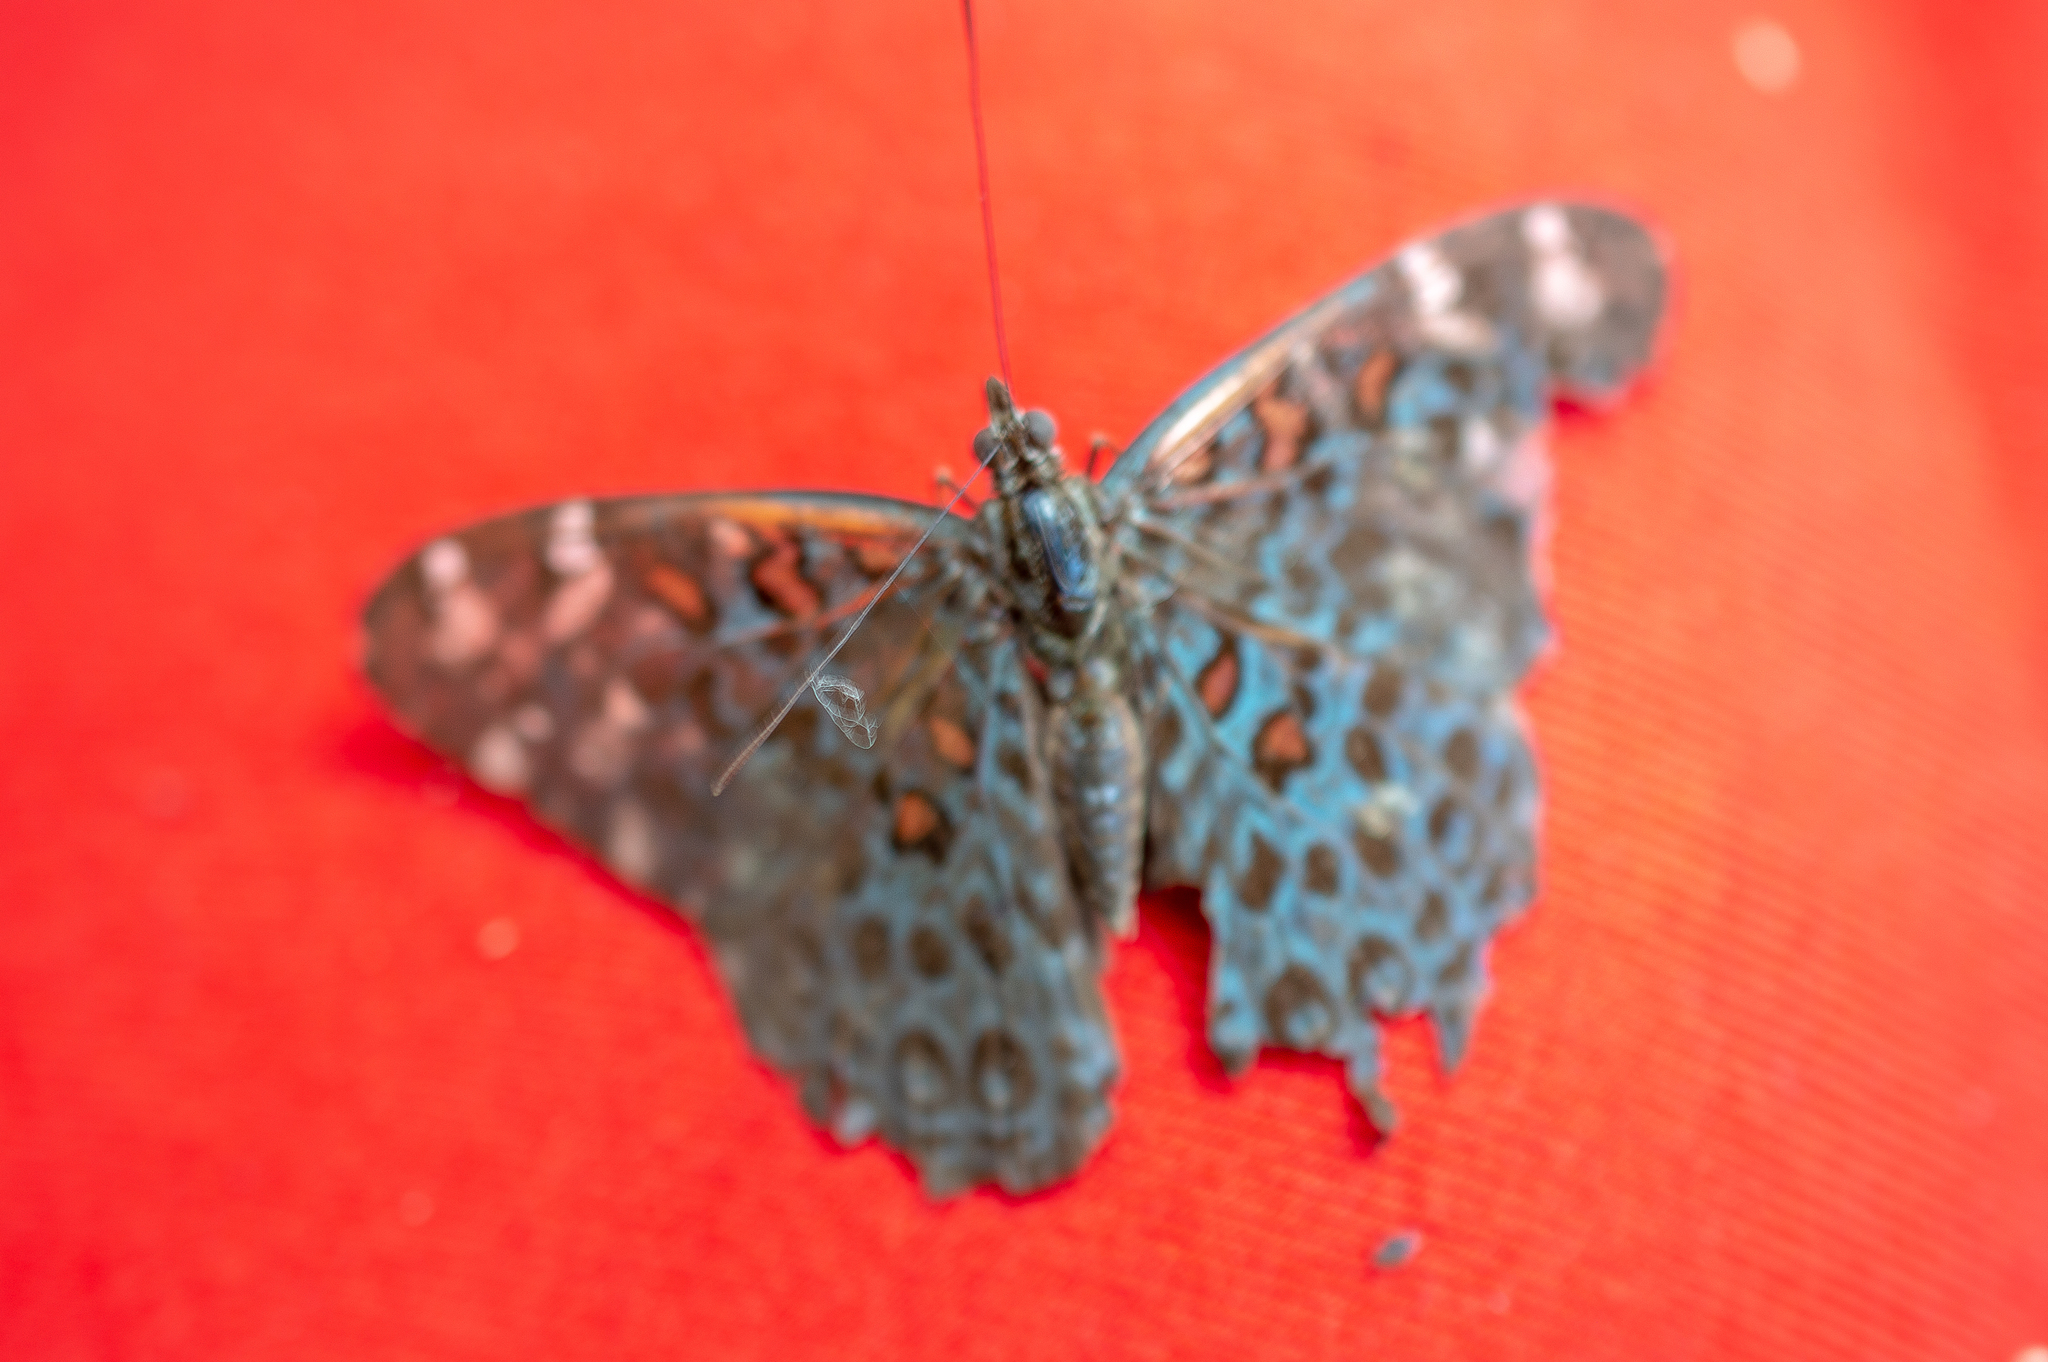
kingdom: Animalia
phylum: Arthropoda
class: Insecta
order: Lepidoptera
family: Nymphalidae
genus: Hamadryas
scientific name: Hamadryas chloe
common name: Amazon cracker
